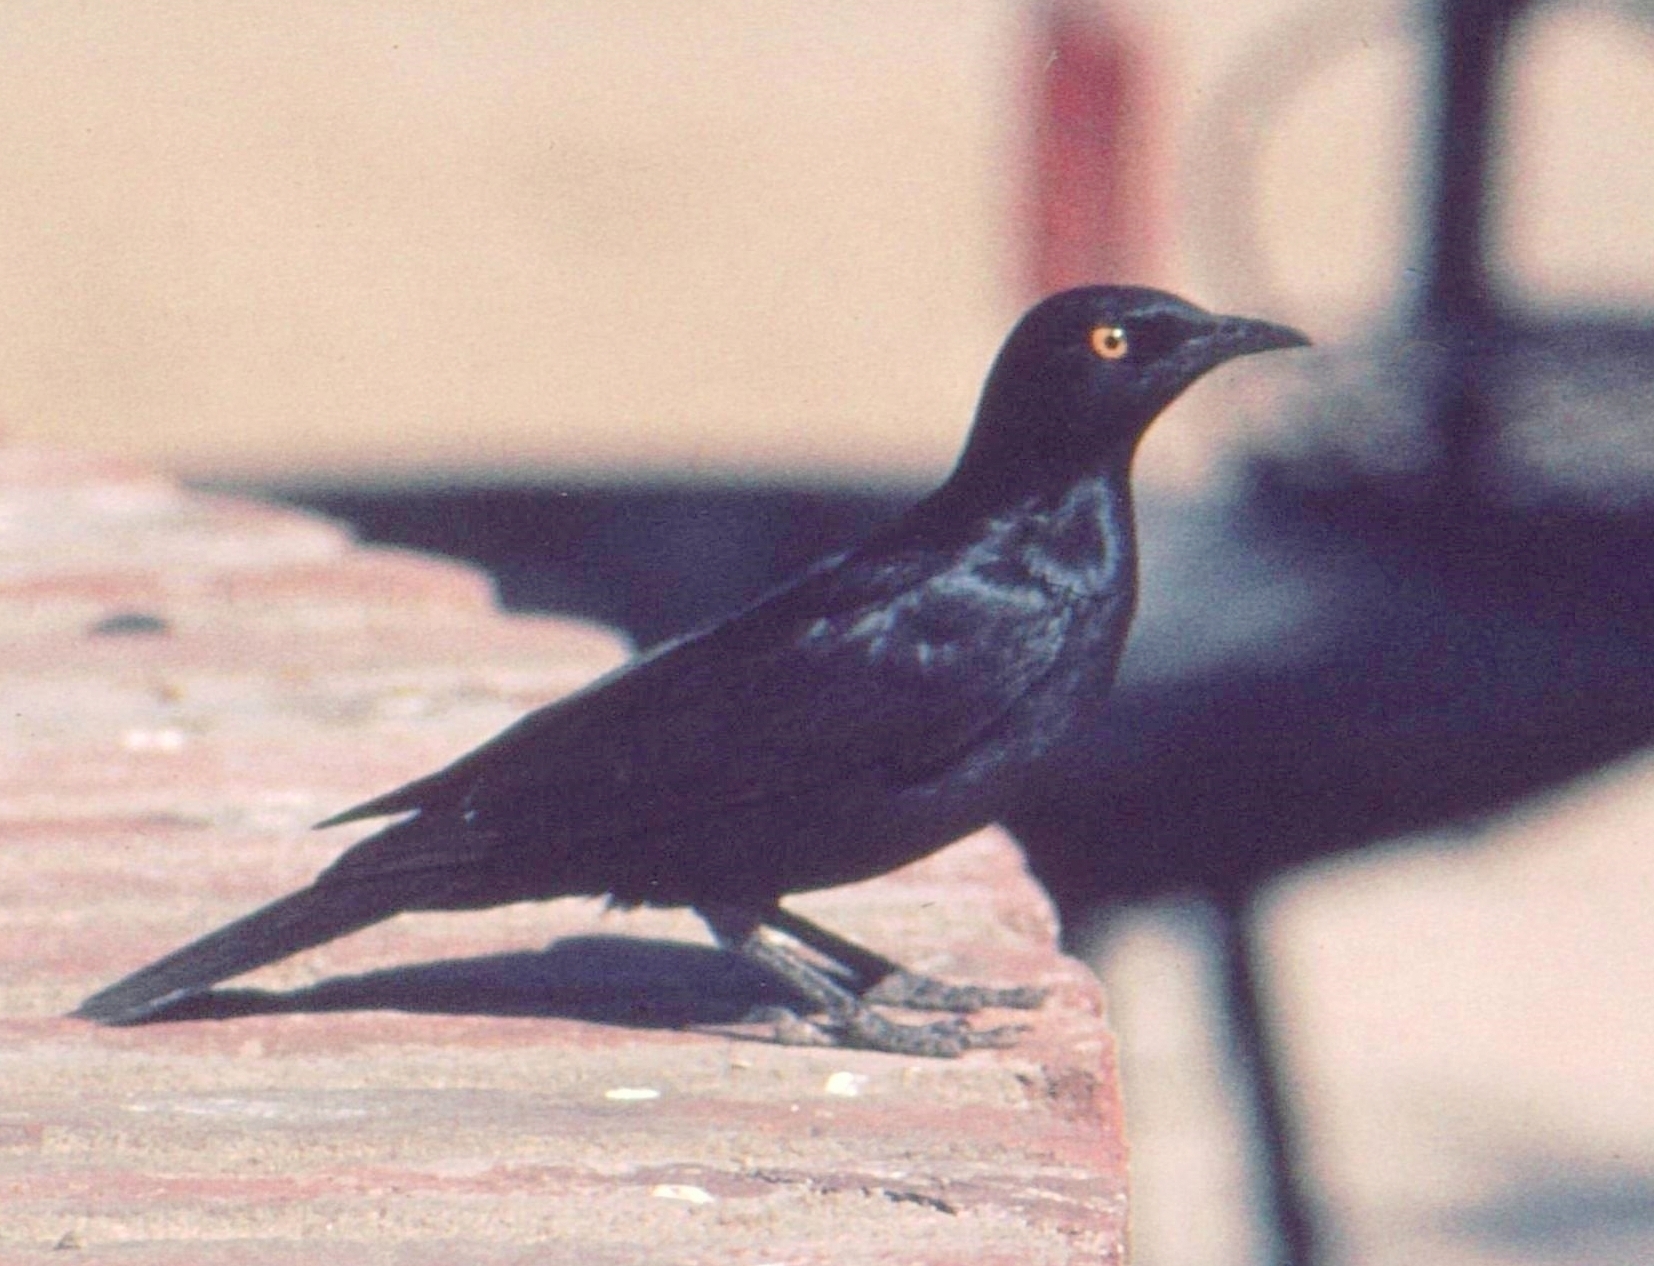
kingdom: Animalia
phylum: Chordata
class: Aves
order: Passeriformes
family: Sturnidae
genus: Onychognathus
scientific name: Onychognathus nabouroup
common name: Pale-winged starling
